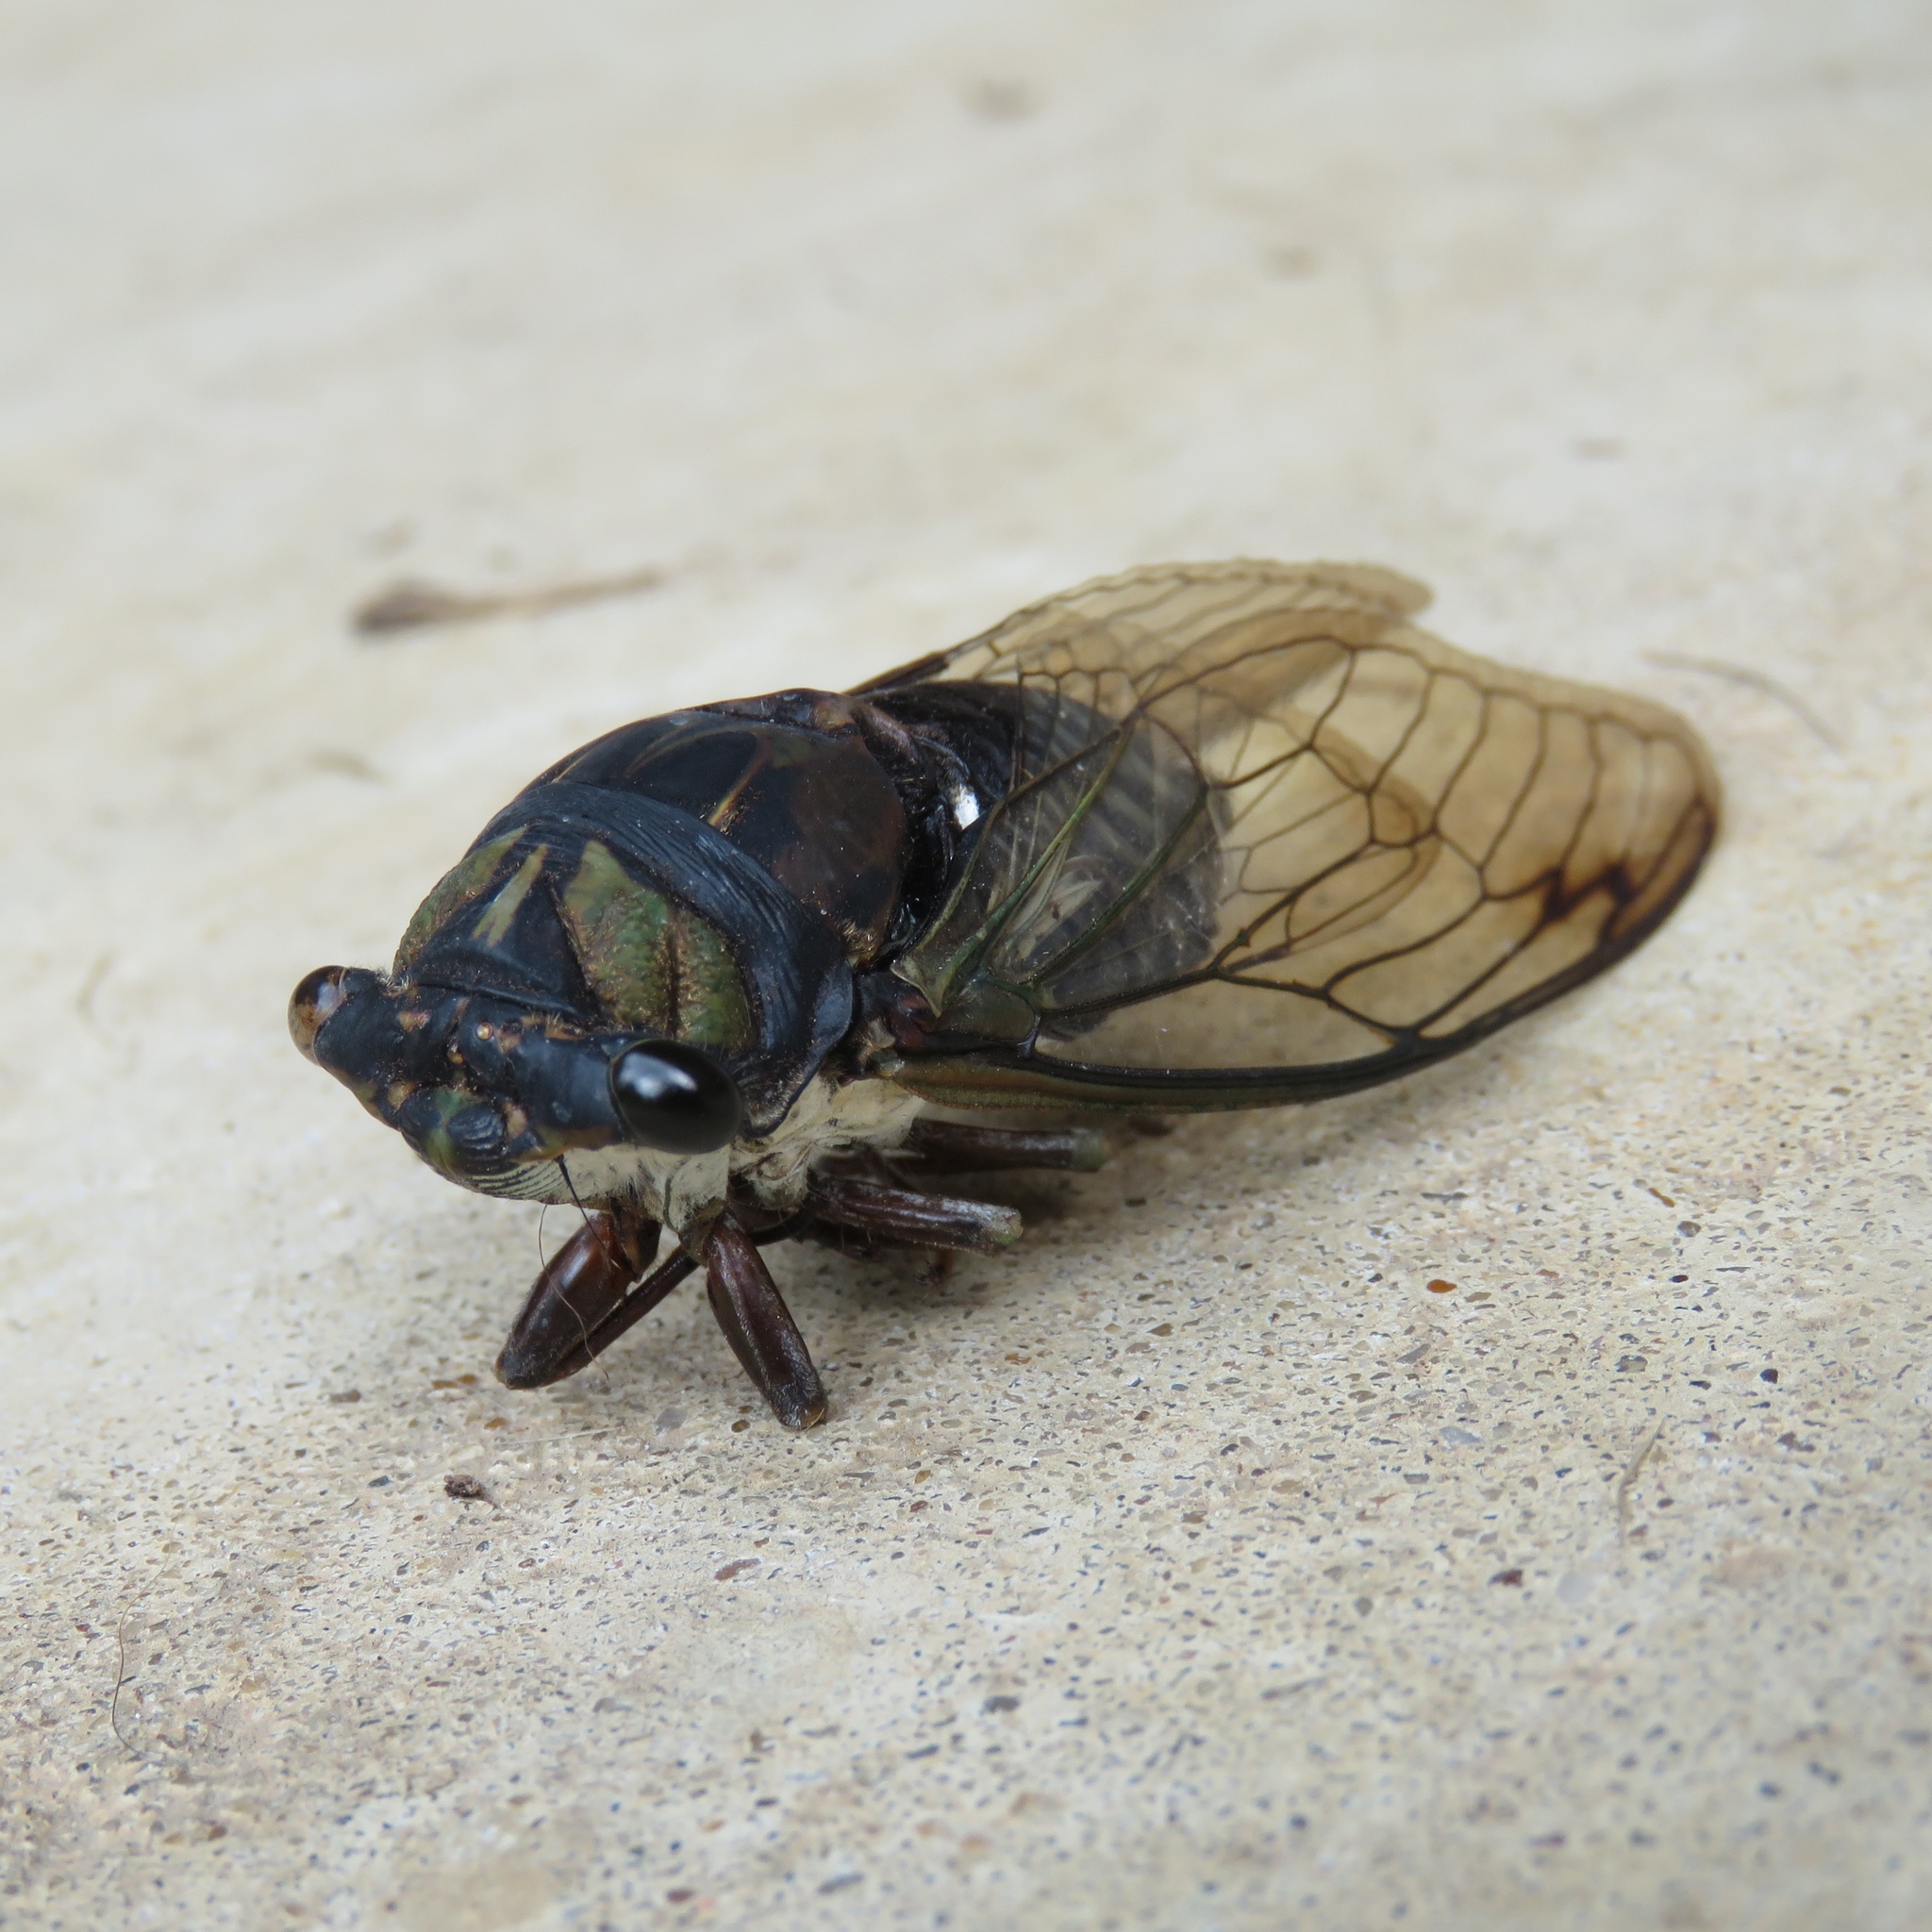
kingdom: Animalia
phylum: Arthropoda
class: Insecta
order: Hemiptera
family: Cicadidae
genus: Neotibicen
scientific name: Neotibicen lyricen
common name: Lyric cicada
